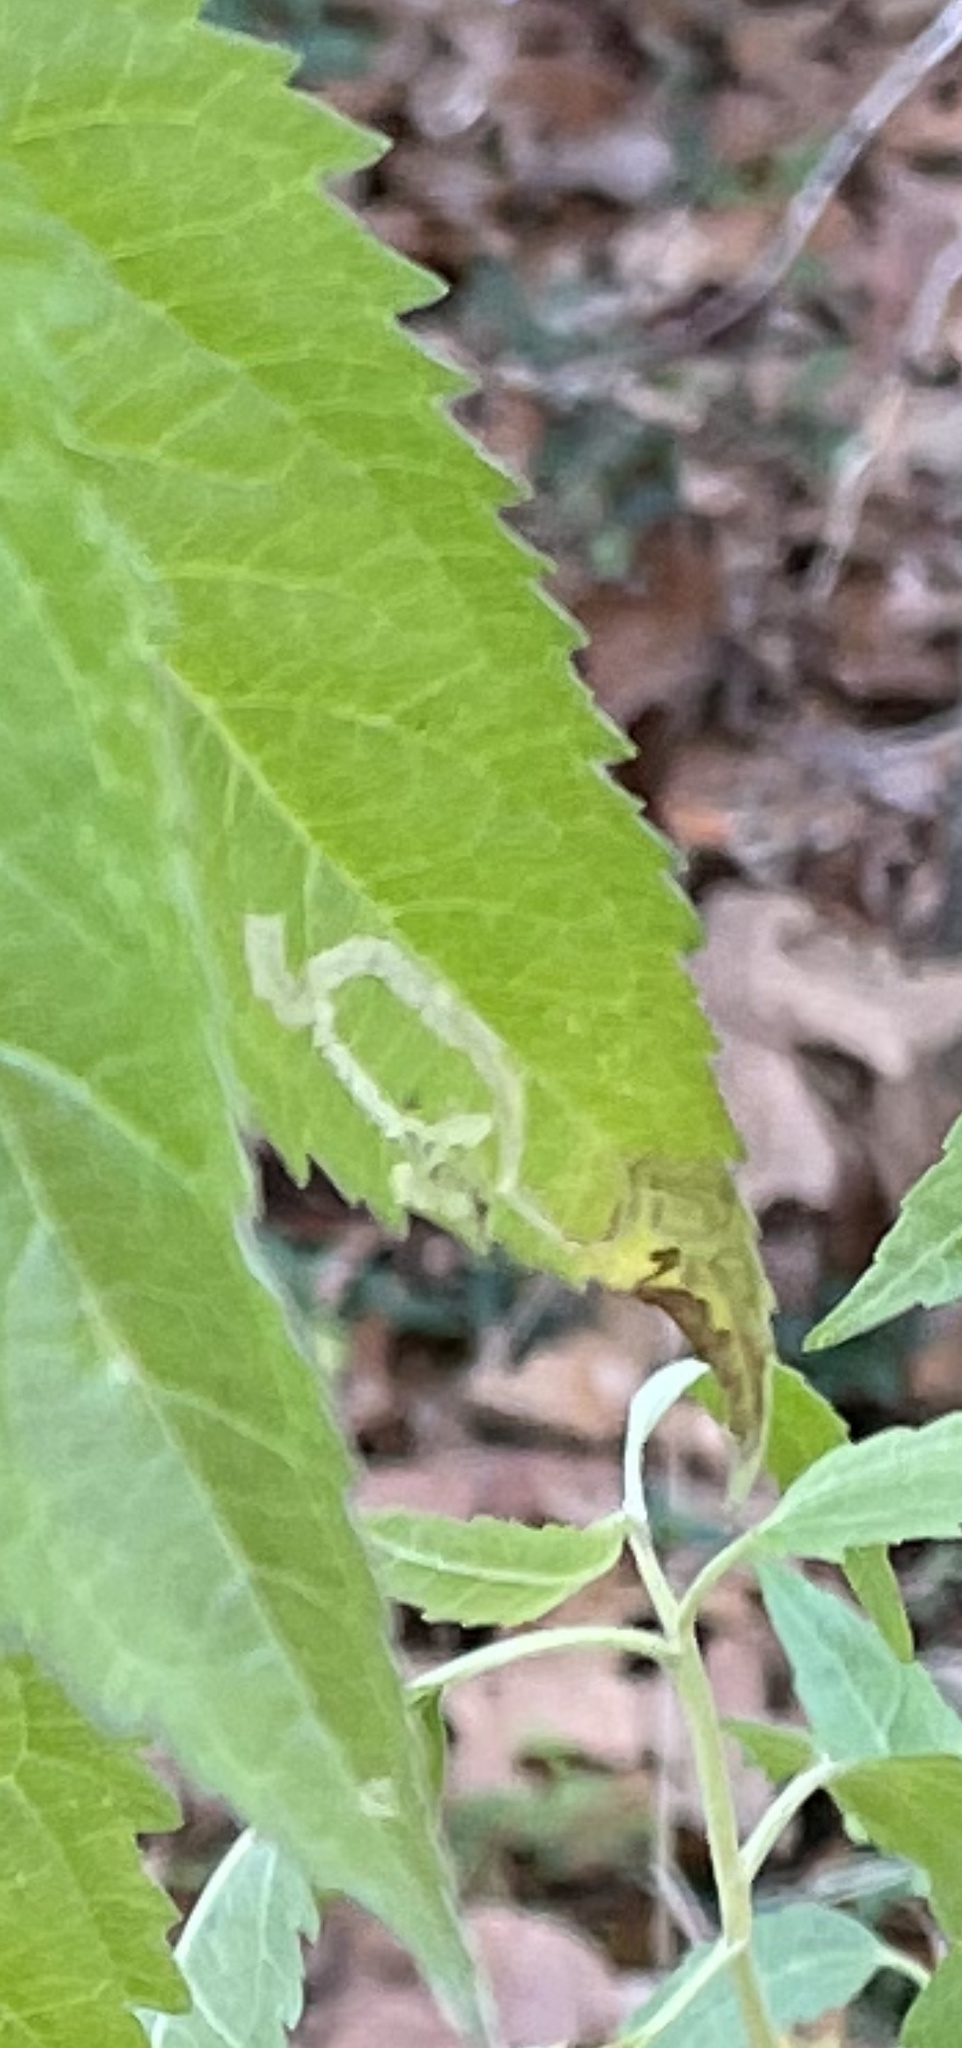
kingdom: Animalia
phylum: Arthropoda
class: Insecta
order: Diptera
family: Agromyzidae
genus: Liriomyza
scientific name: Liriomyza cracentis
